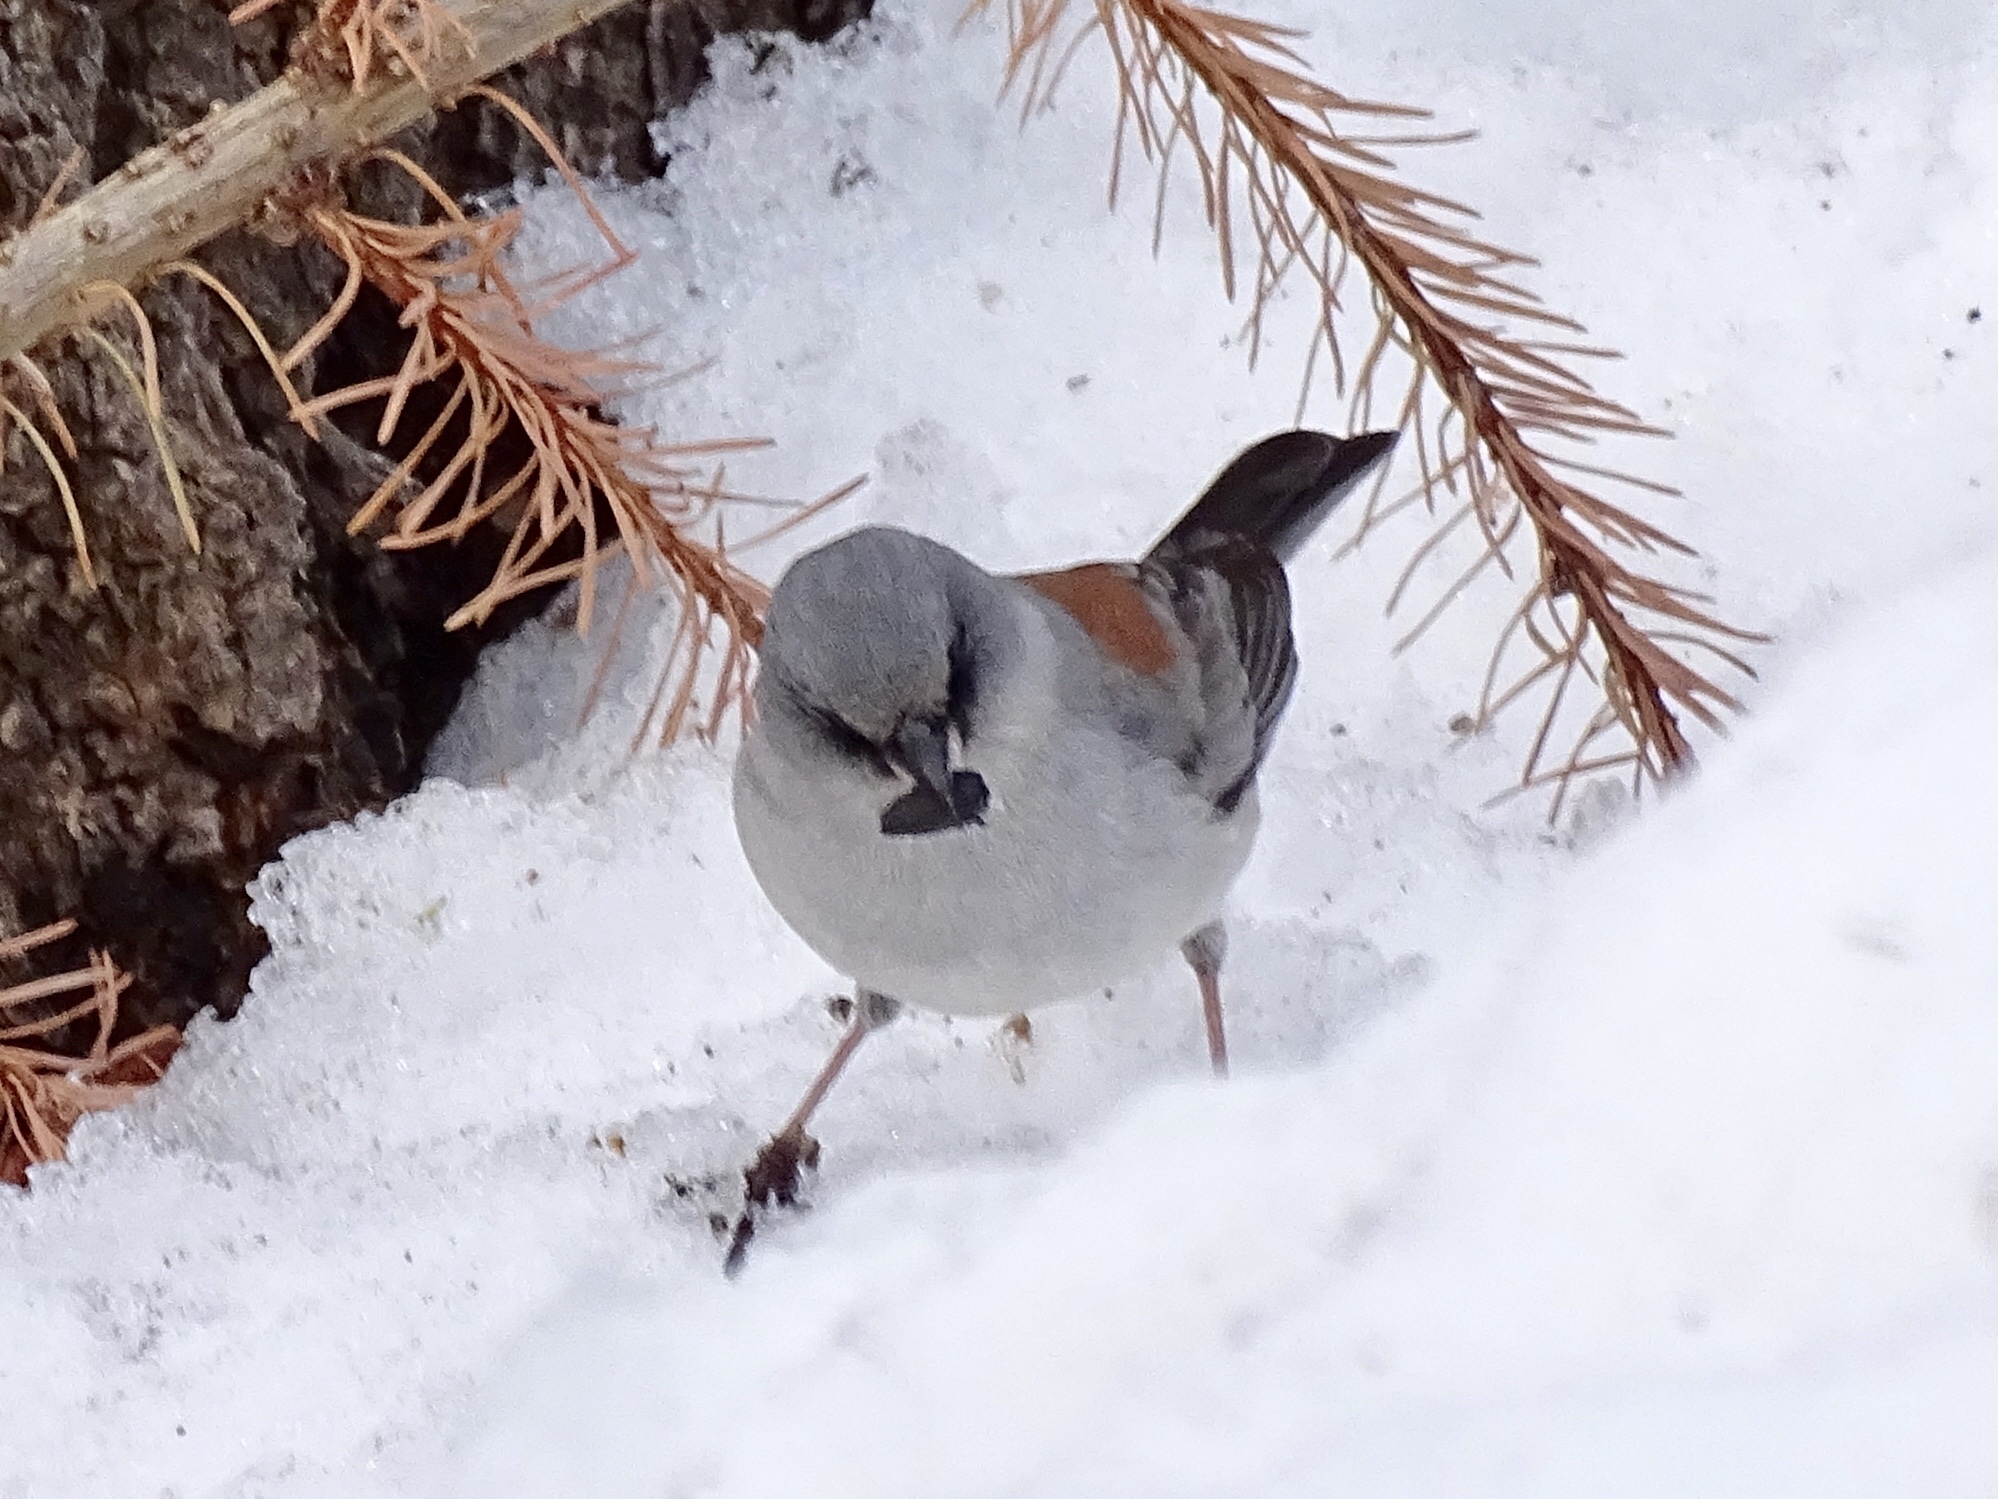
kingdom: Animalia
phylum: Chordata
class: Aves
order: Passeriformes
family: Passerellidae
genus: Junco
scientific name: Junco hyemalis
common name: Dark-eyed junco
